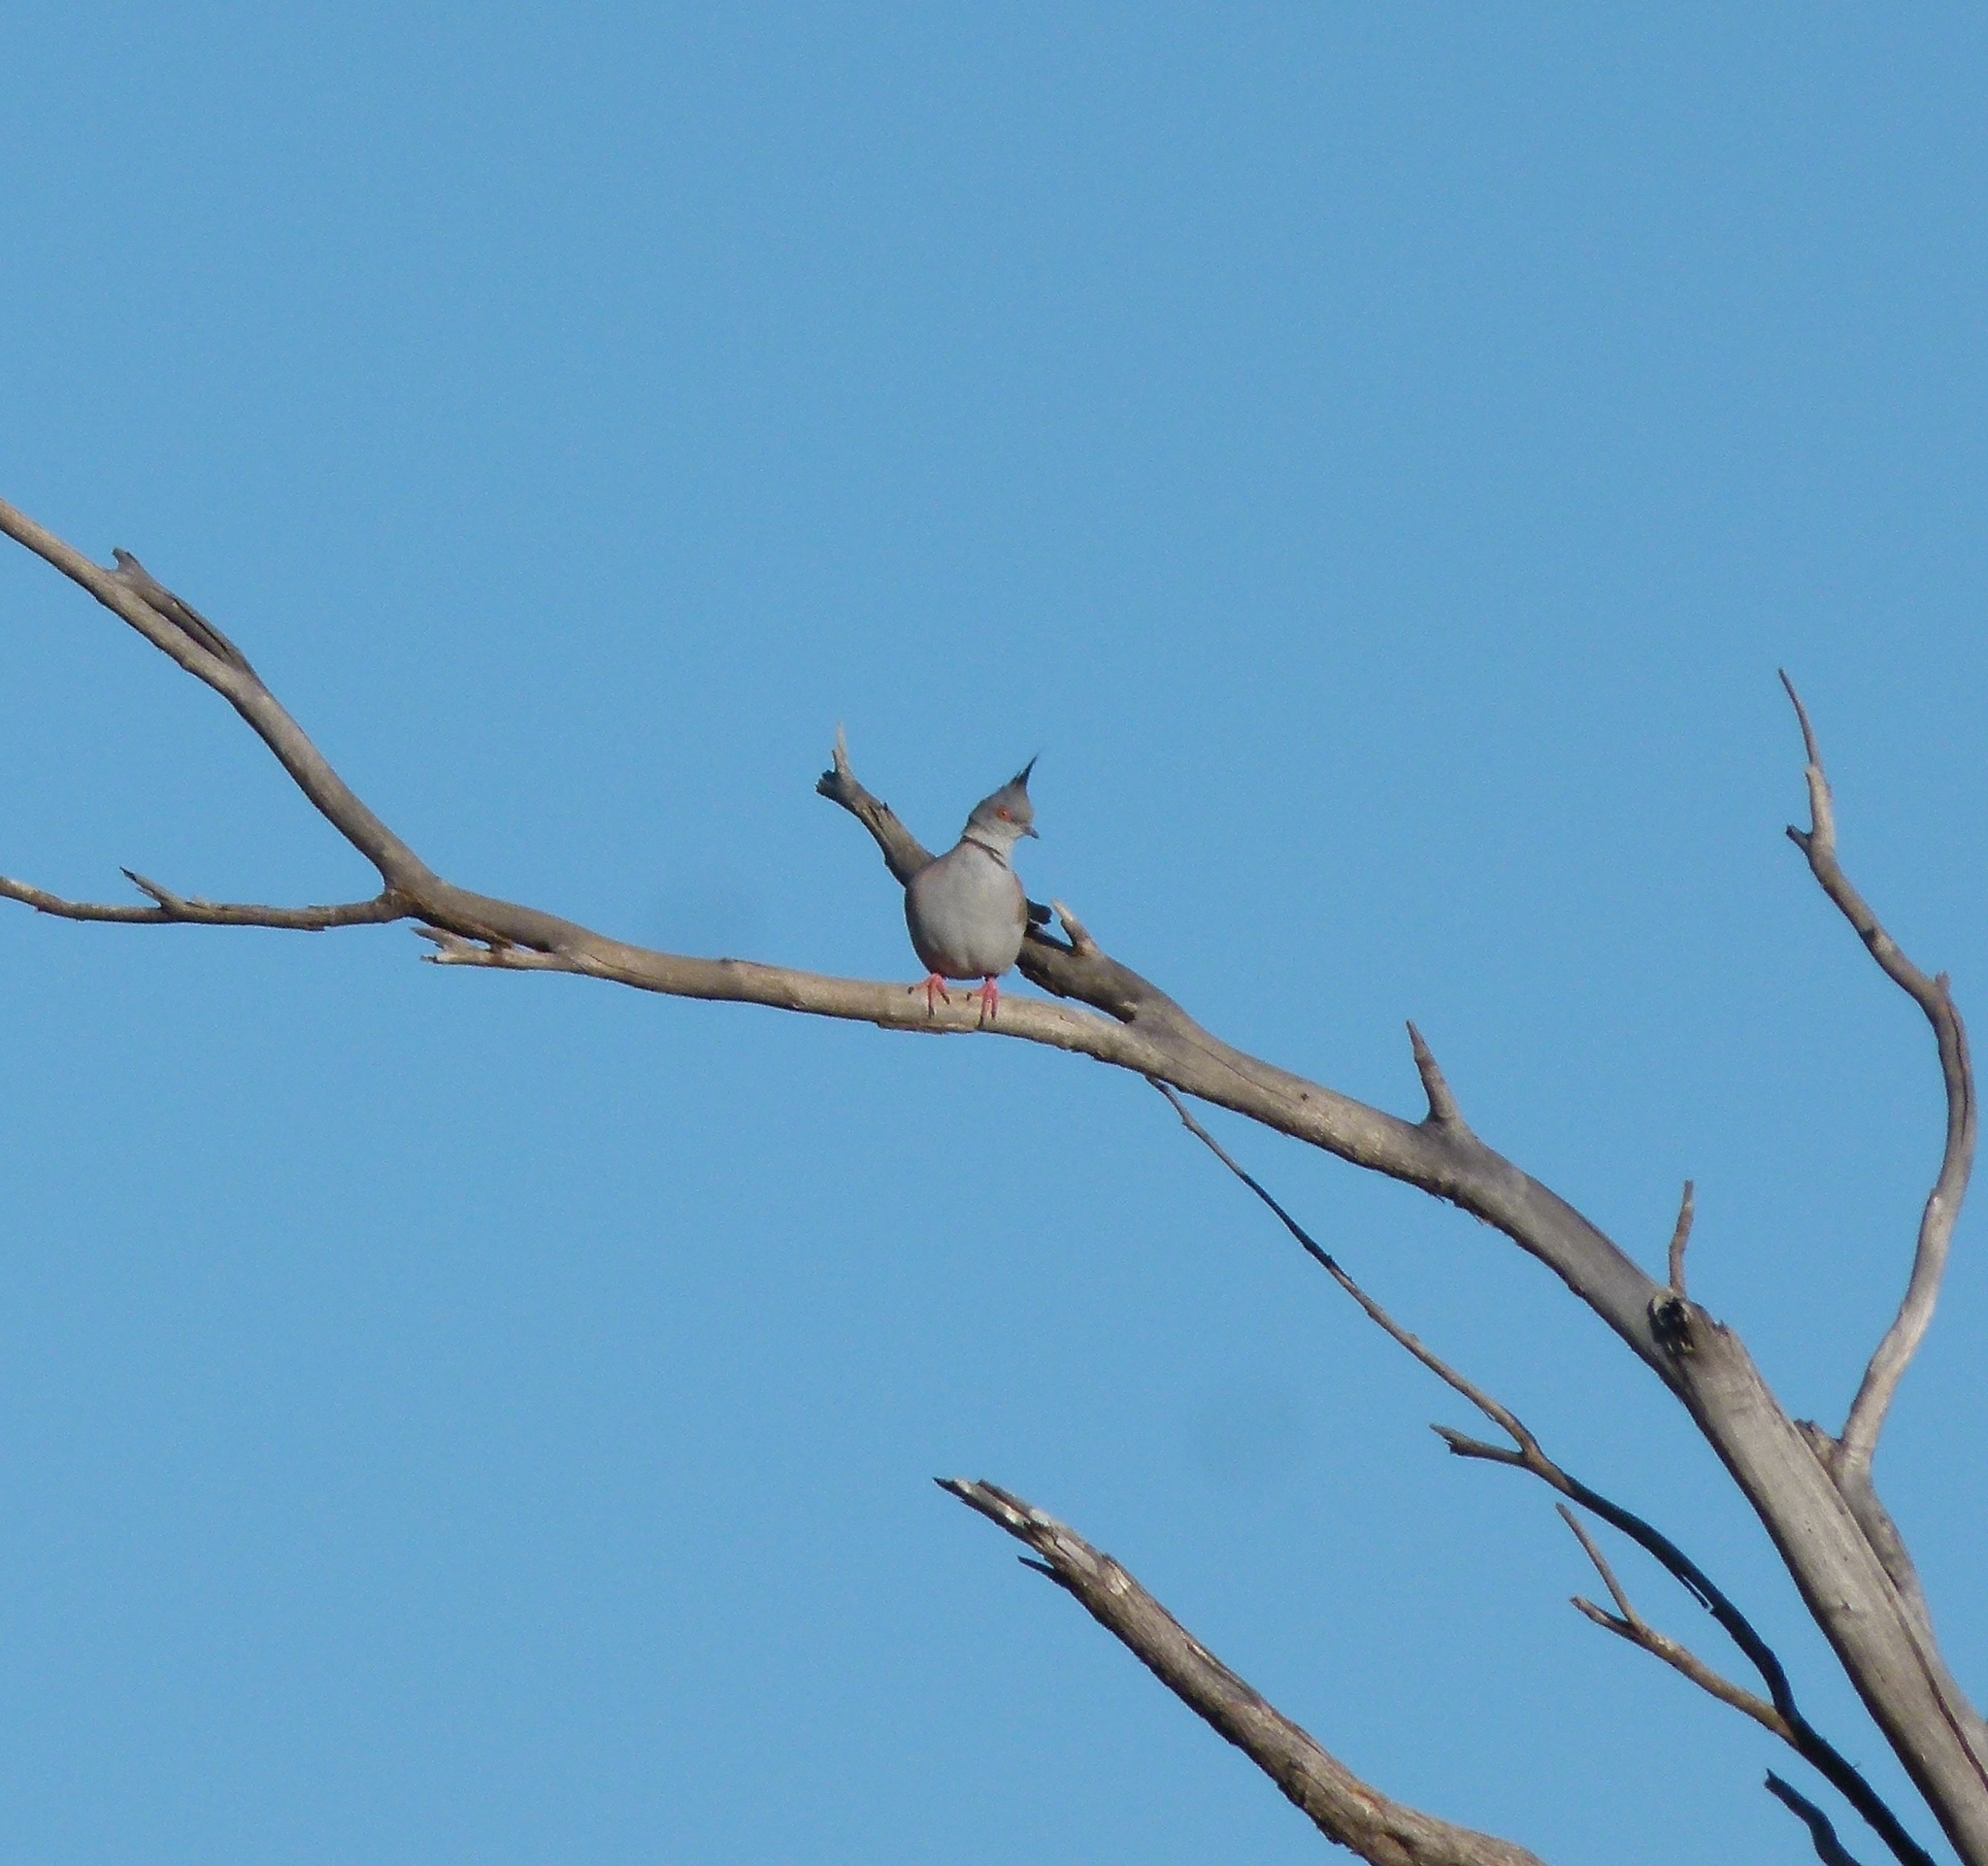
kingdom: Animalia
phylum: Chordata
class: Aves
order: Columbiformes
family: Columbidae
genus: Ocyphaps
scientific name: Ocyphaps lophotes
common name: Crested pigeon
